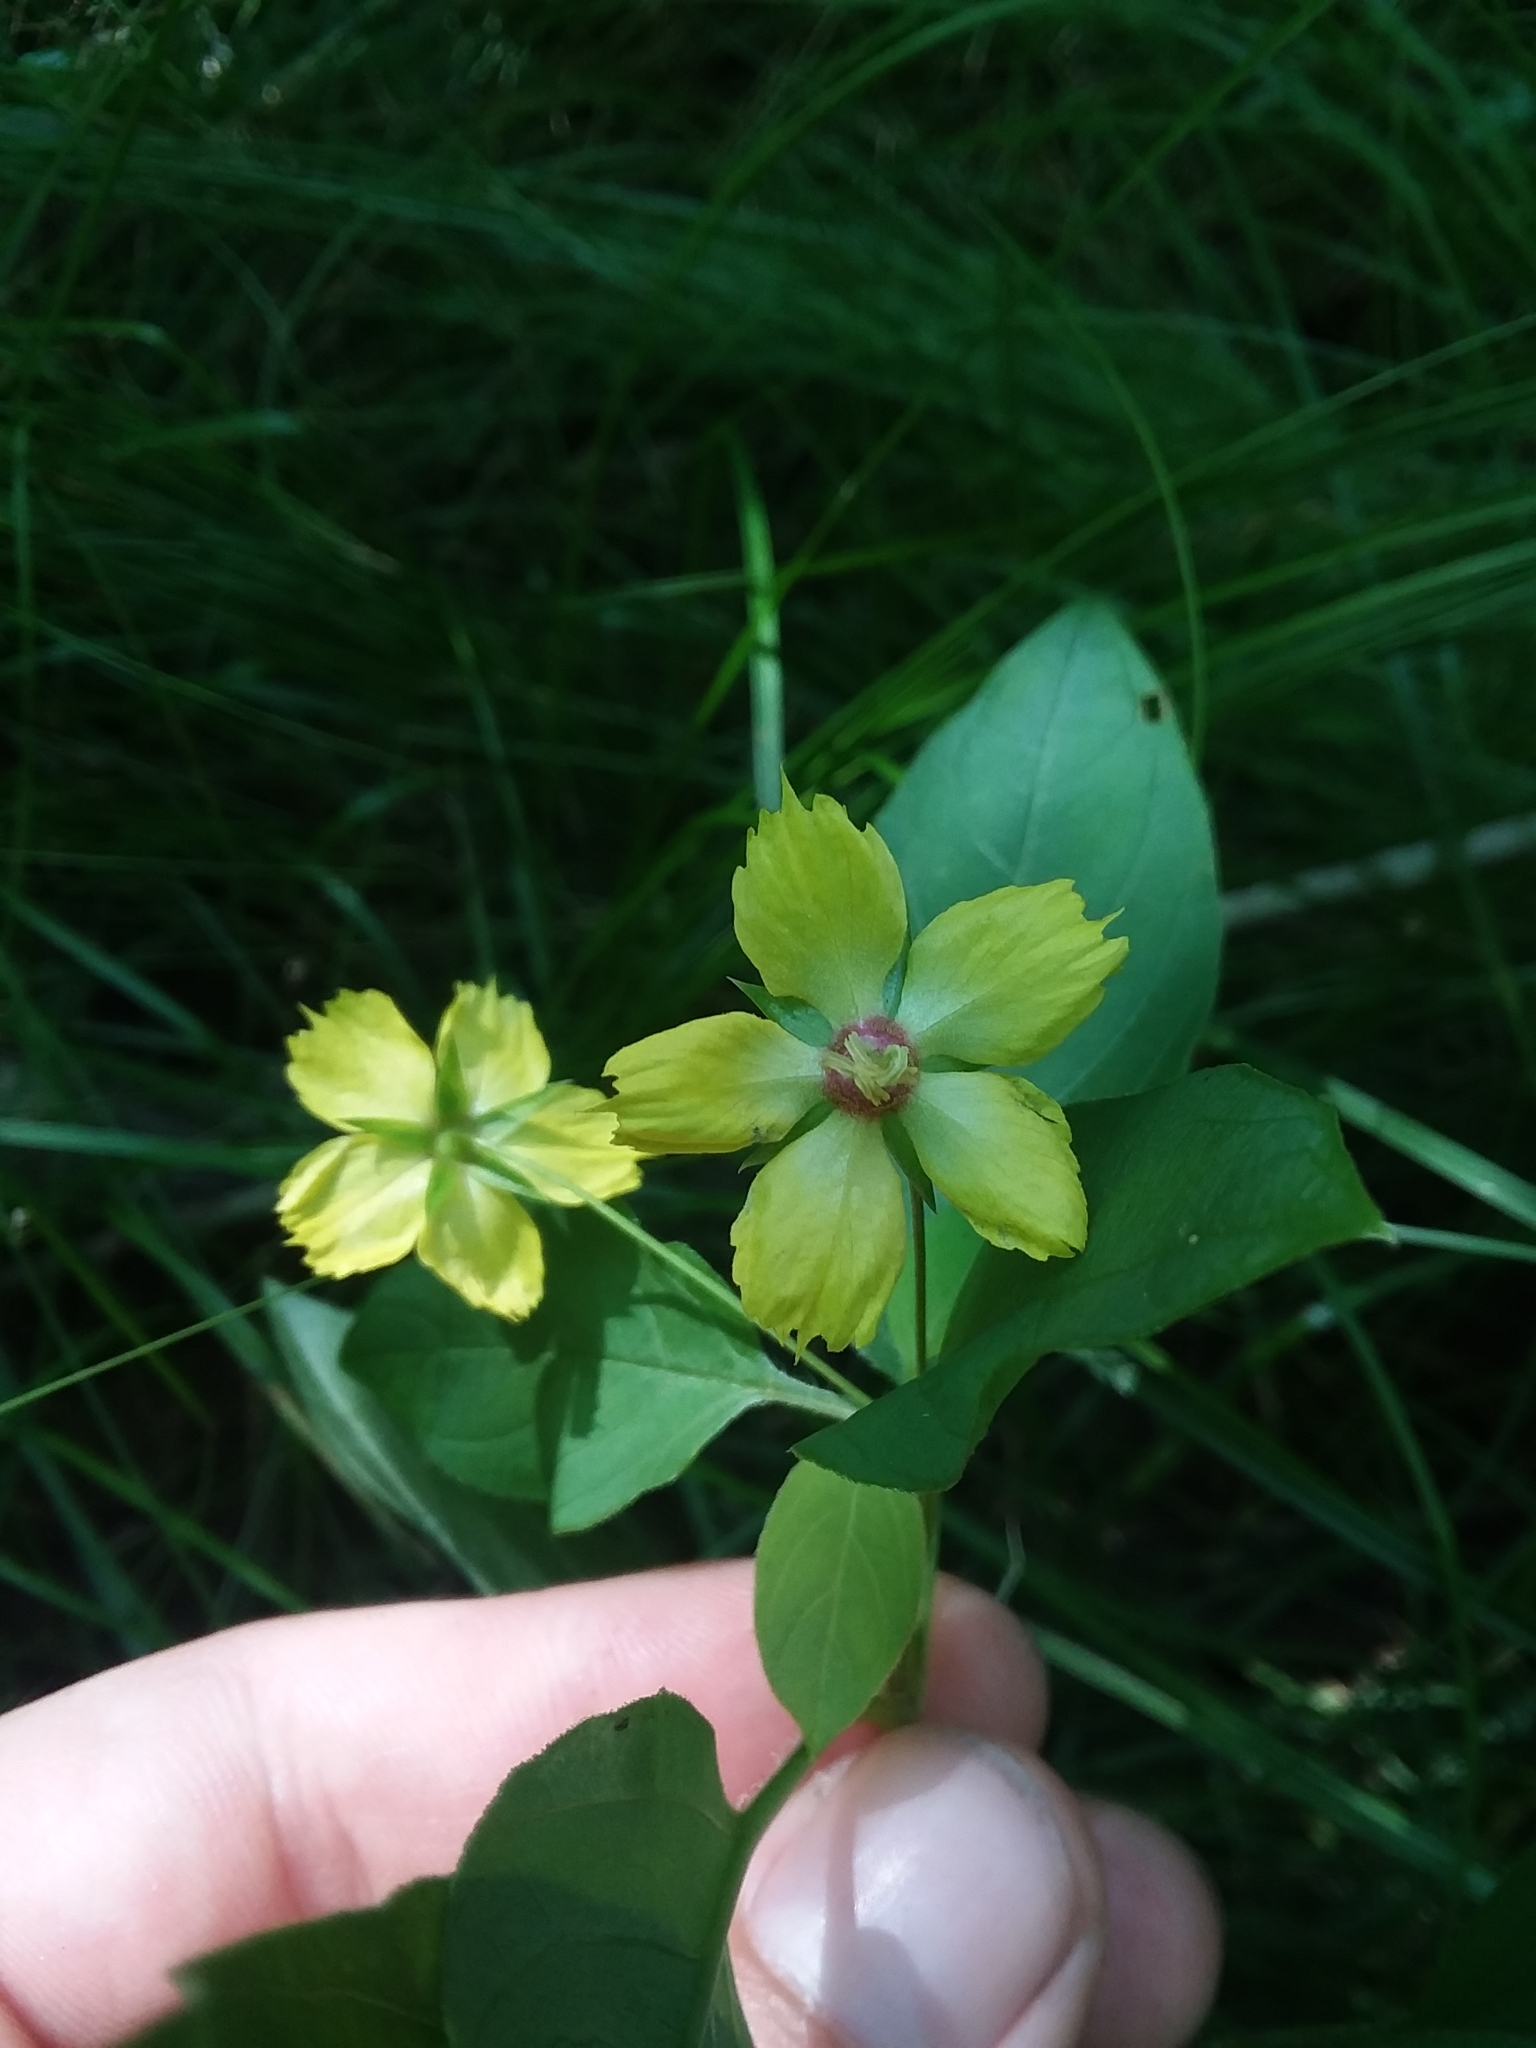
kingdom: Plantae
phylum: Tracheophyta
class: Magnoliopsida
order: Ericales
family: Primulaceae
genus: Lysimachia
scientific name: Lysimachia ciliata
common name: Fringed loosestrife
